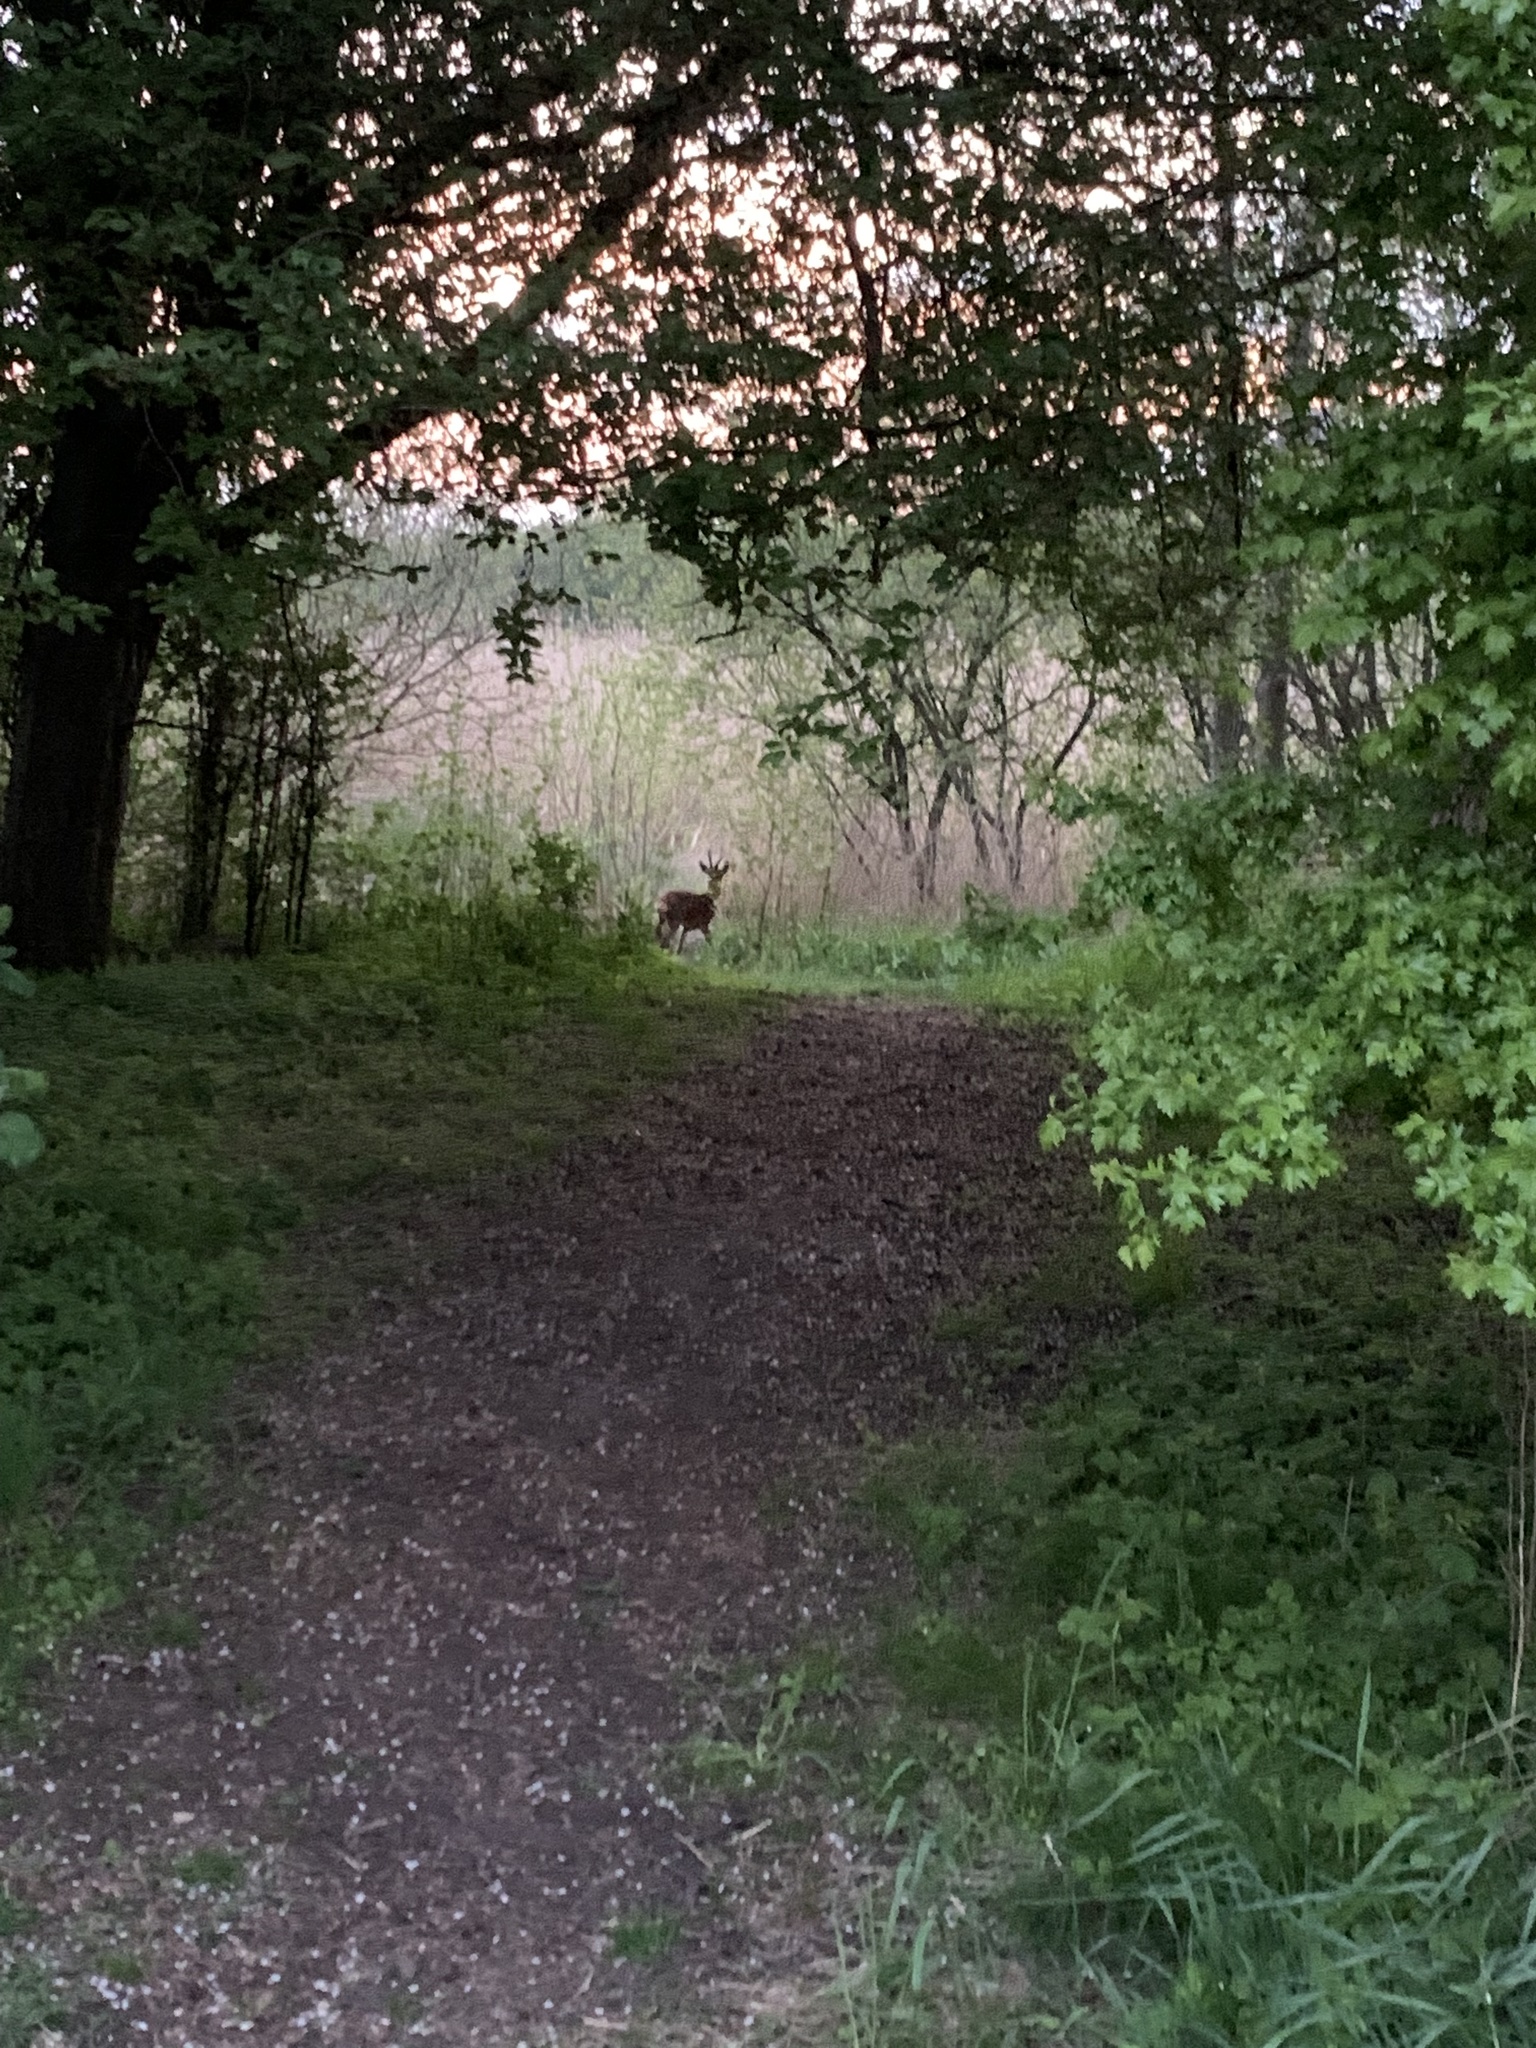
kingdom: Animalia
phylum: Chordata
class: Mammalia
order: Artiodactyla
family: Cervidae
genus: Capreolus
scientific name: Capreolus capreolus
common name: Western roe deer
